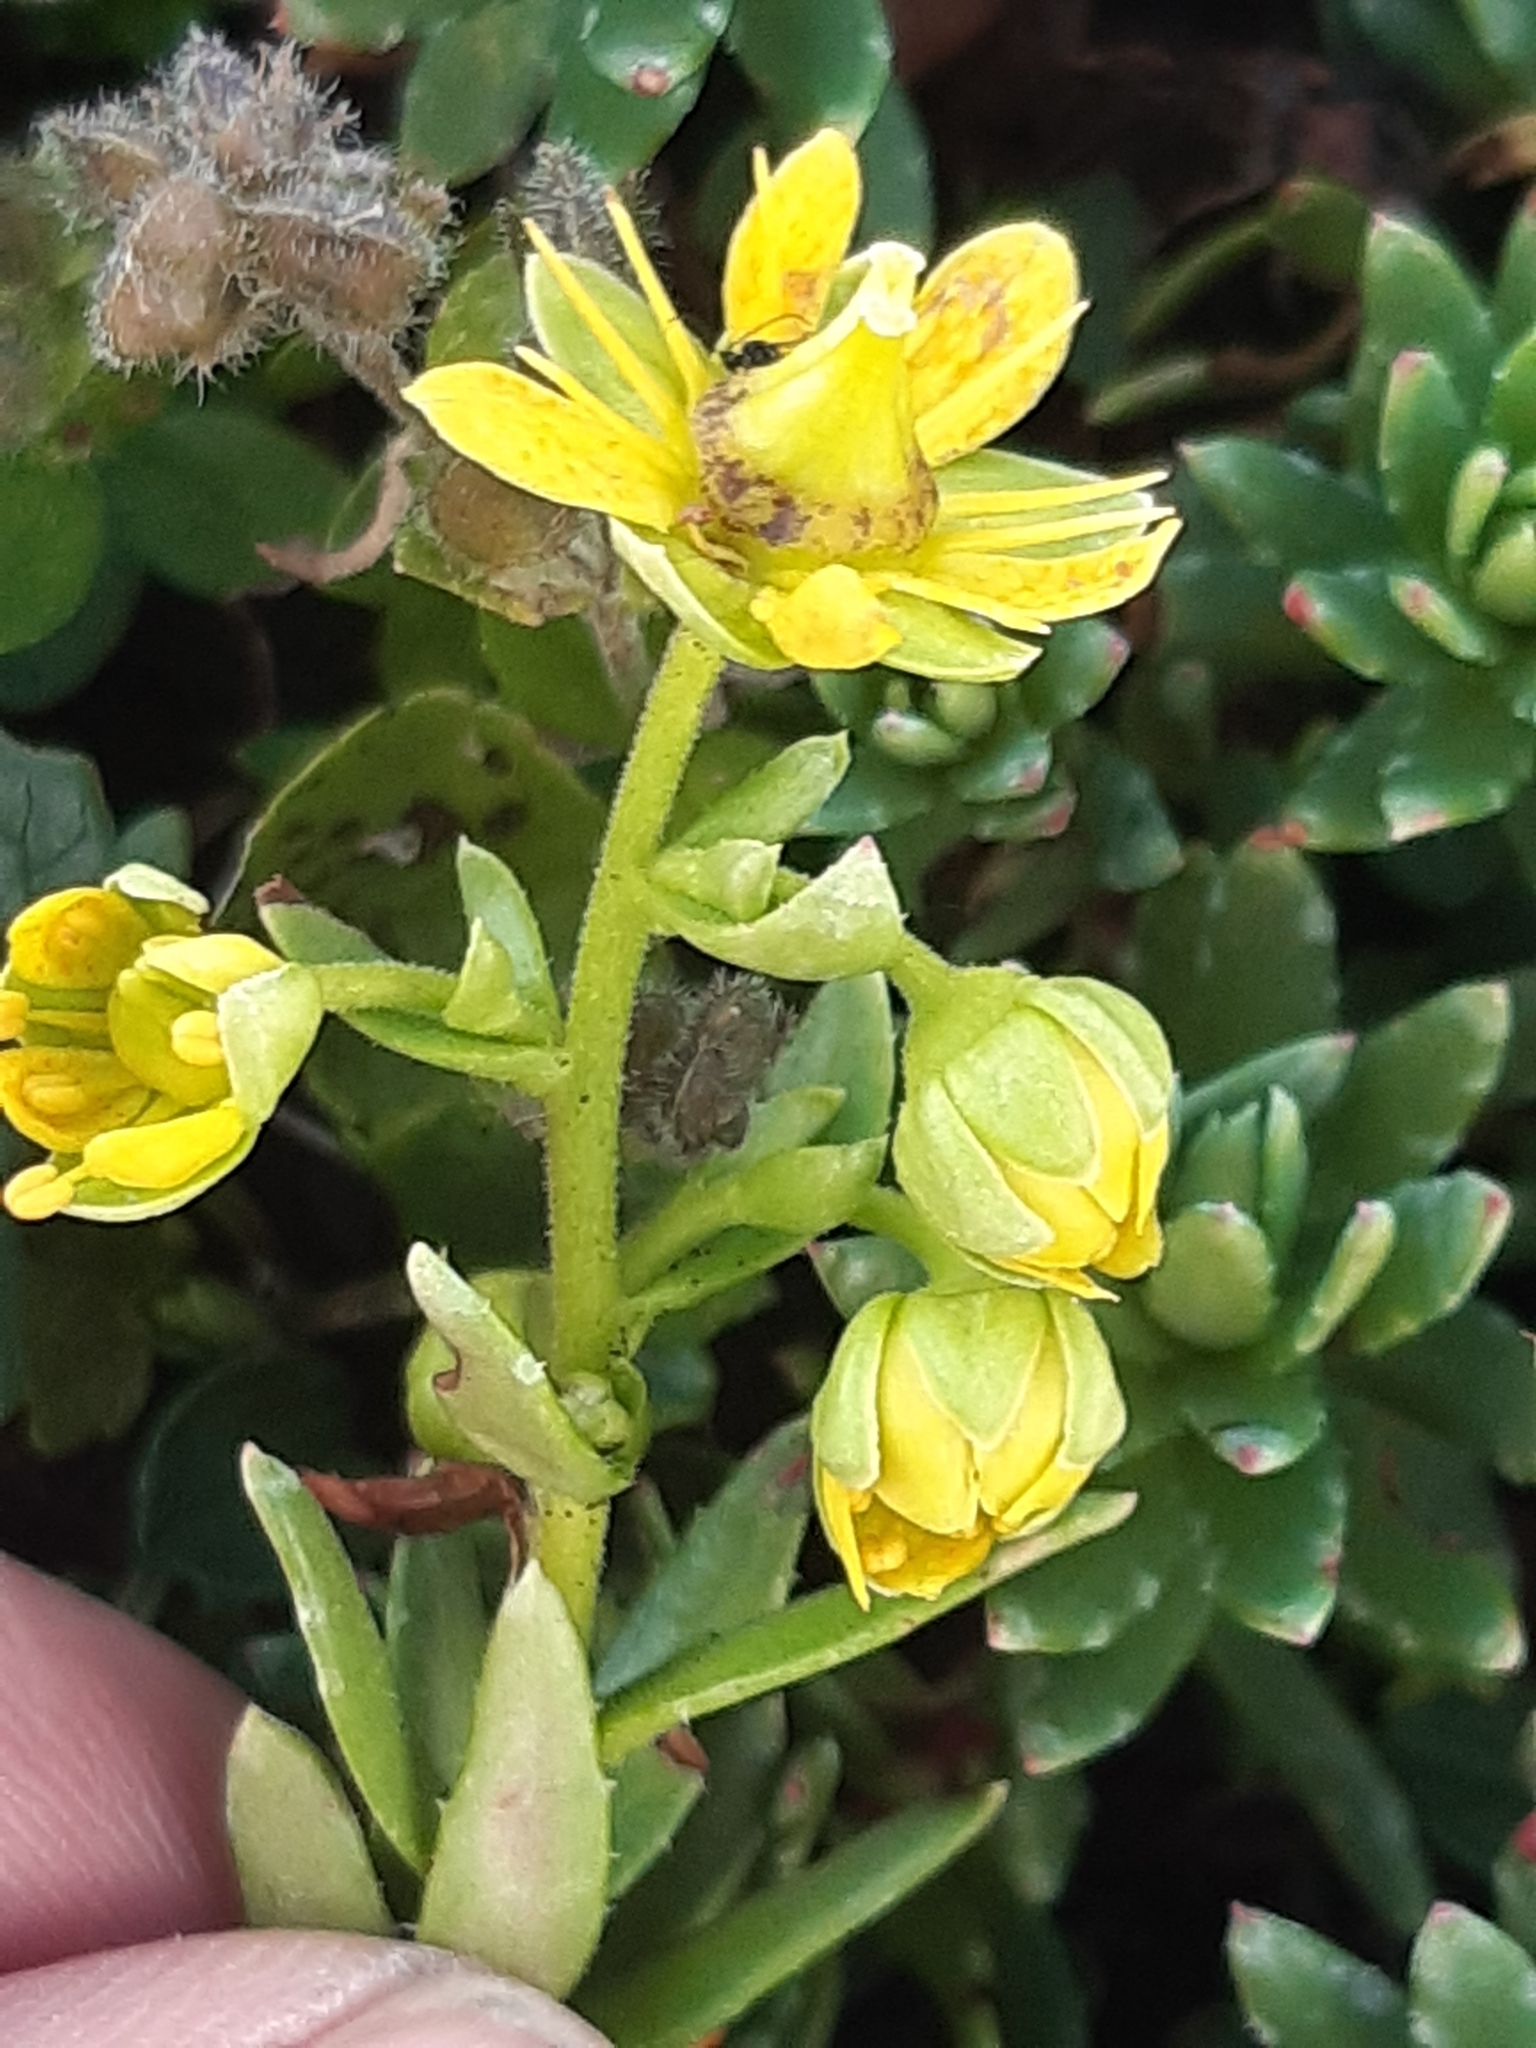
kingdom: Plantae
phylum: Tracheophyta
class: Magnoliopsida
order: Saxifragales
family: Saxifragaceae
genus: Saxifraga
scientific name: Saxifraga aizoides
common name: Yellow mountain saxifrage
